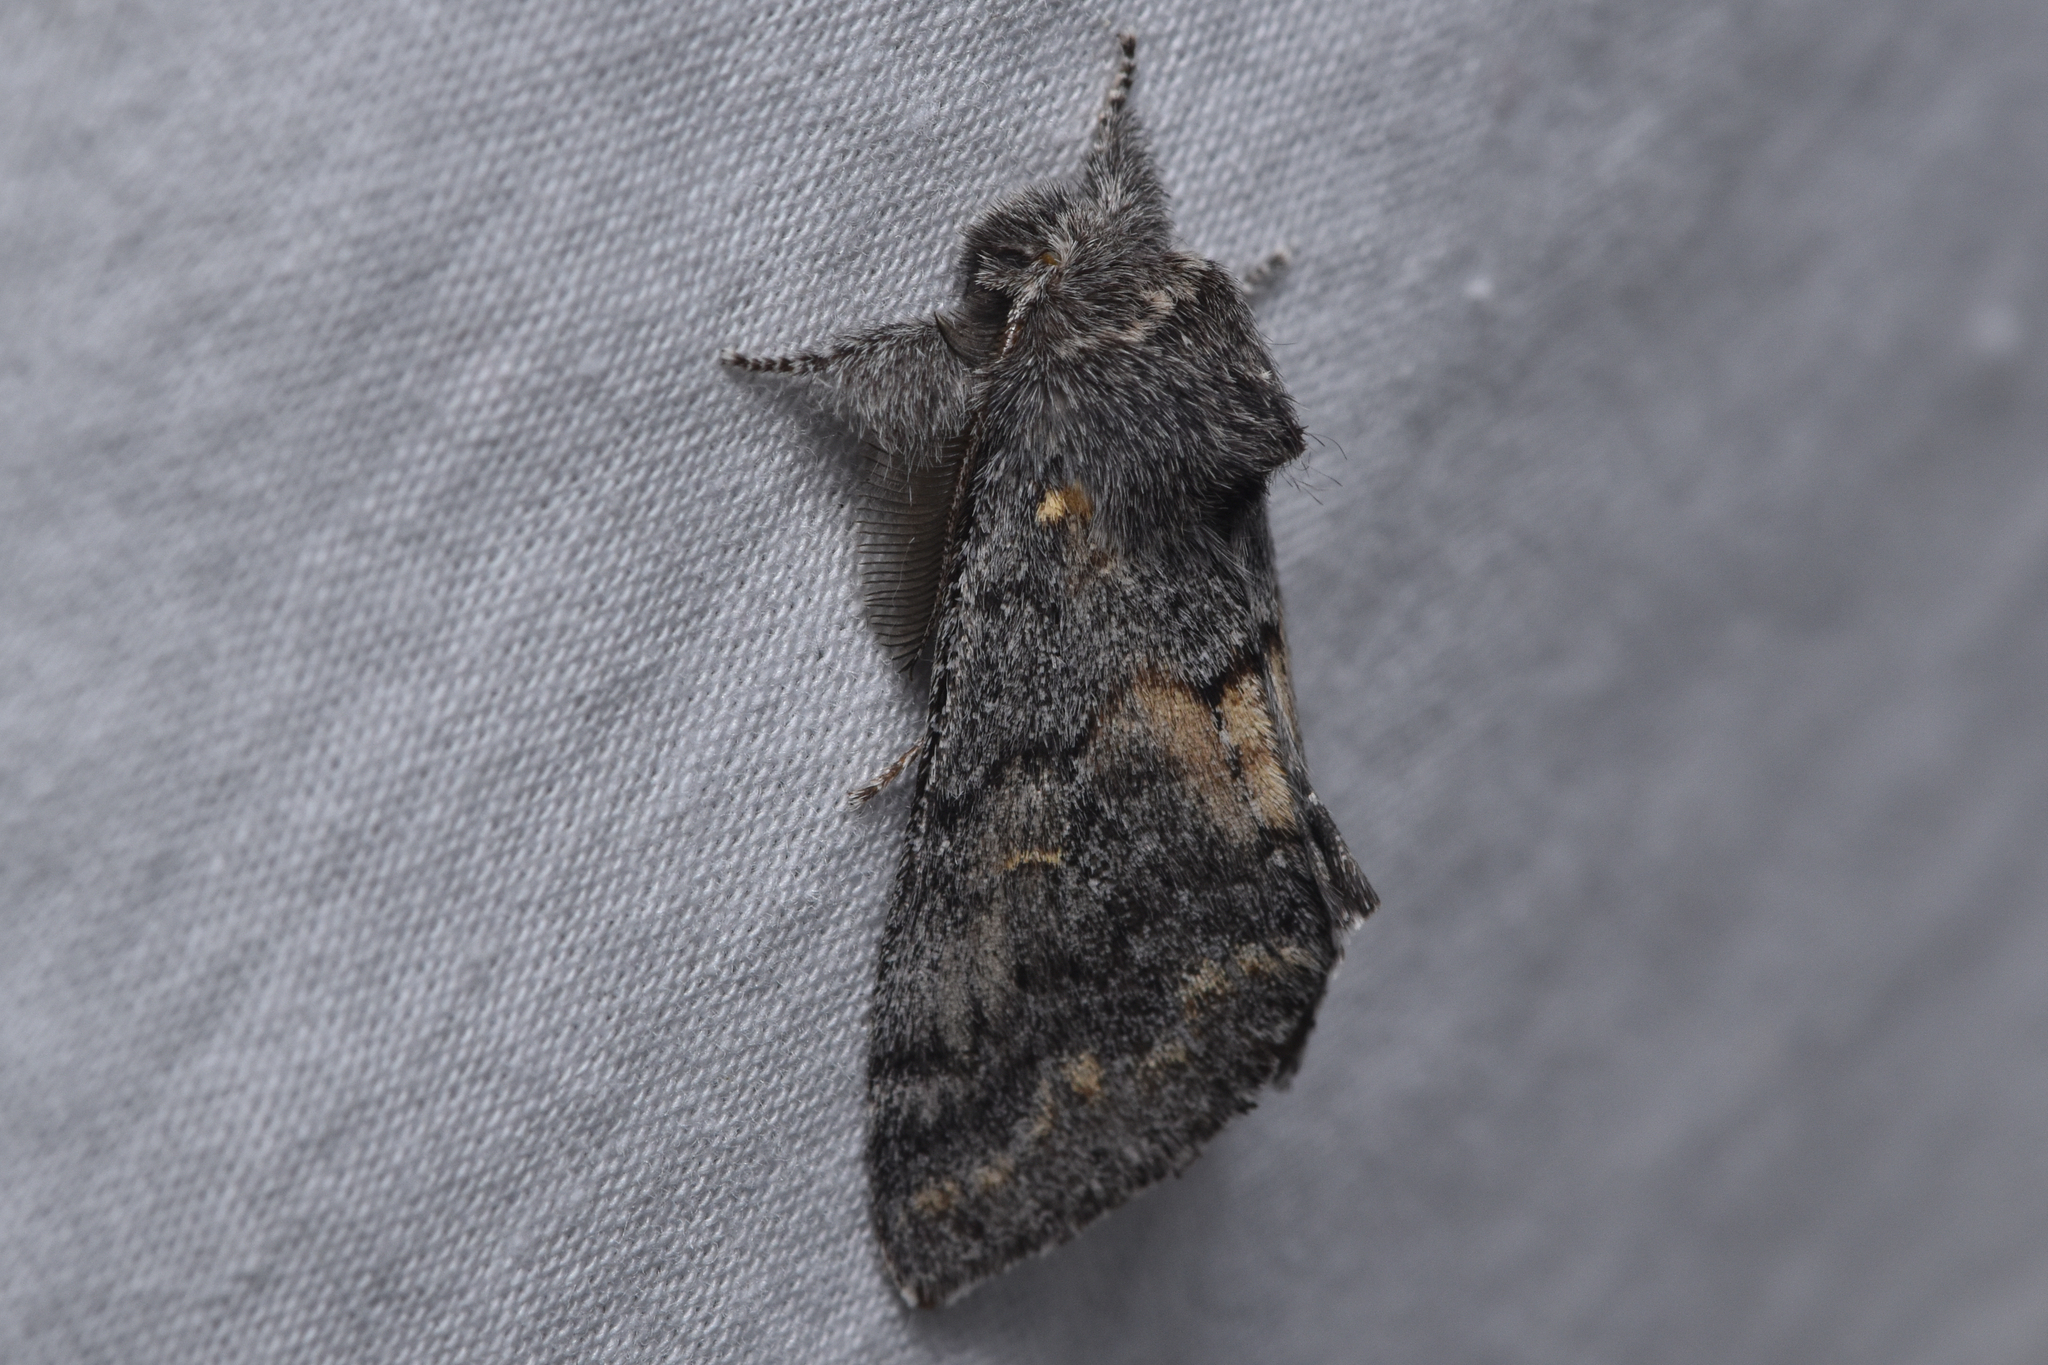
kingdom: Animalia
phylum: Arthropoda
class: Insecta
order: Lepidoptera
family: Notodontidae
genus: Gluphisia
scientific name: Gluphisia severa
